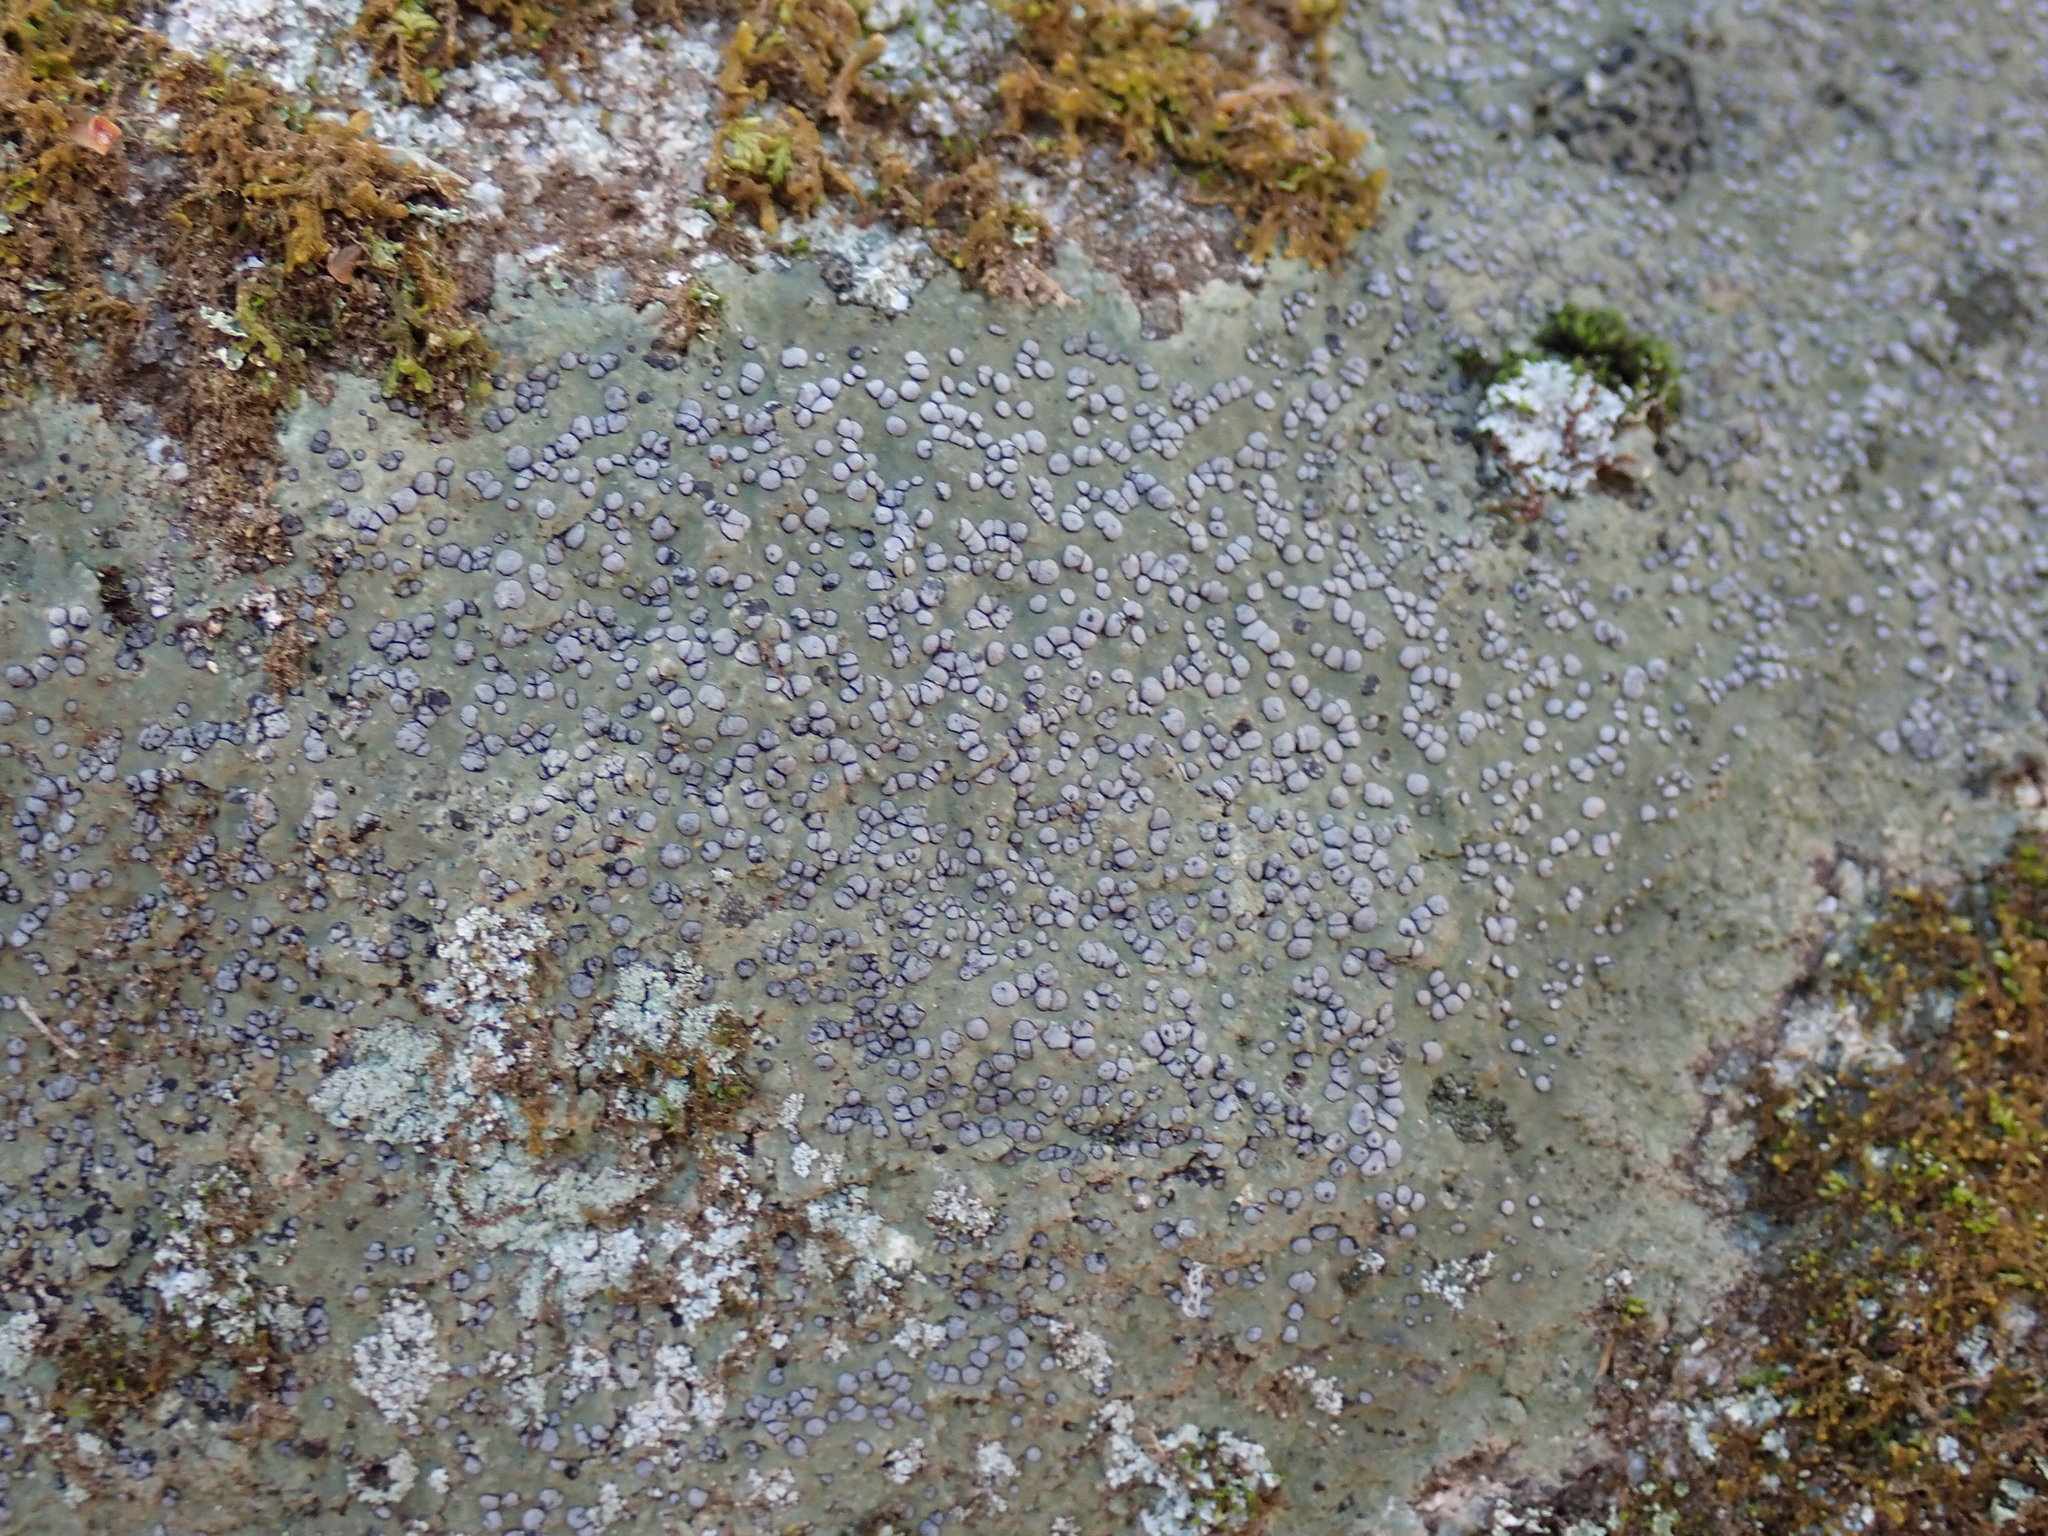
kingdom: Fungi
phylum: Ascomycota
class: Lecanoromycetes
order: Lecideales
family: Lecideaceae
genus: Porpidia
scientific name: Porpidia albocaerulescens
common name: Smokey-eyed boulder lichen
